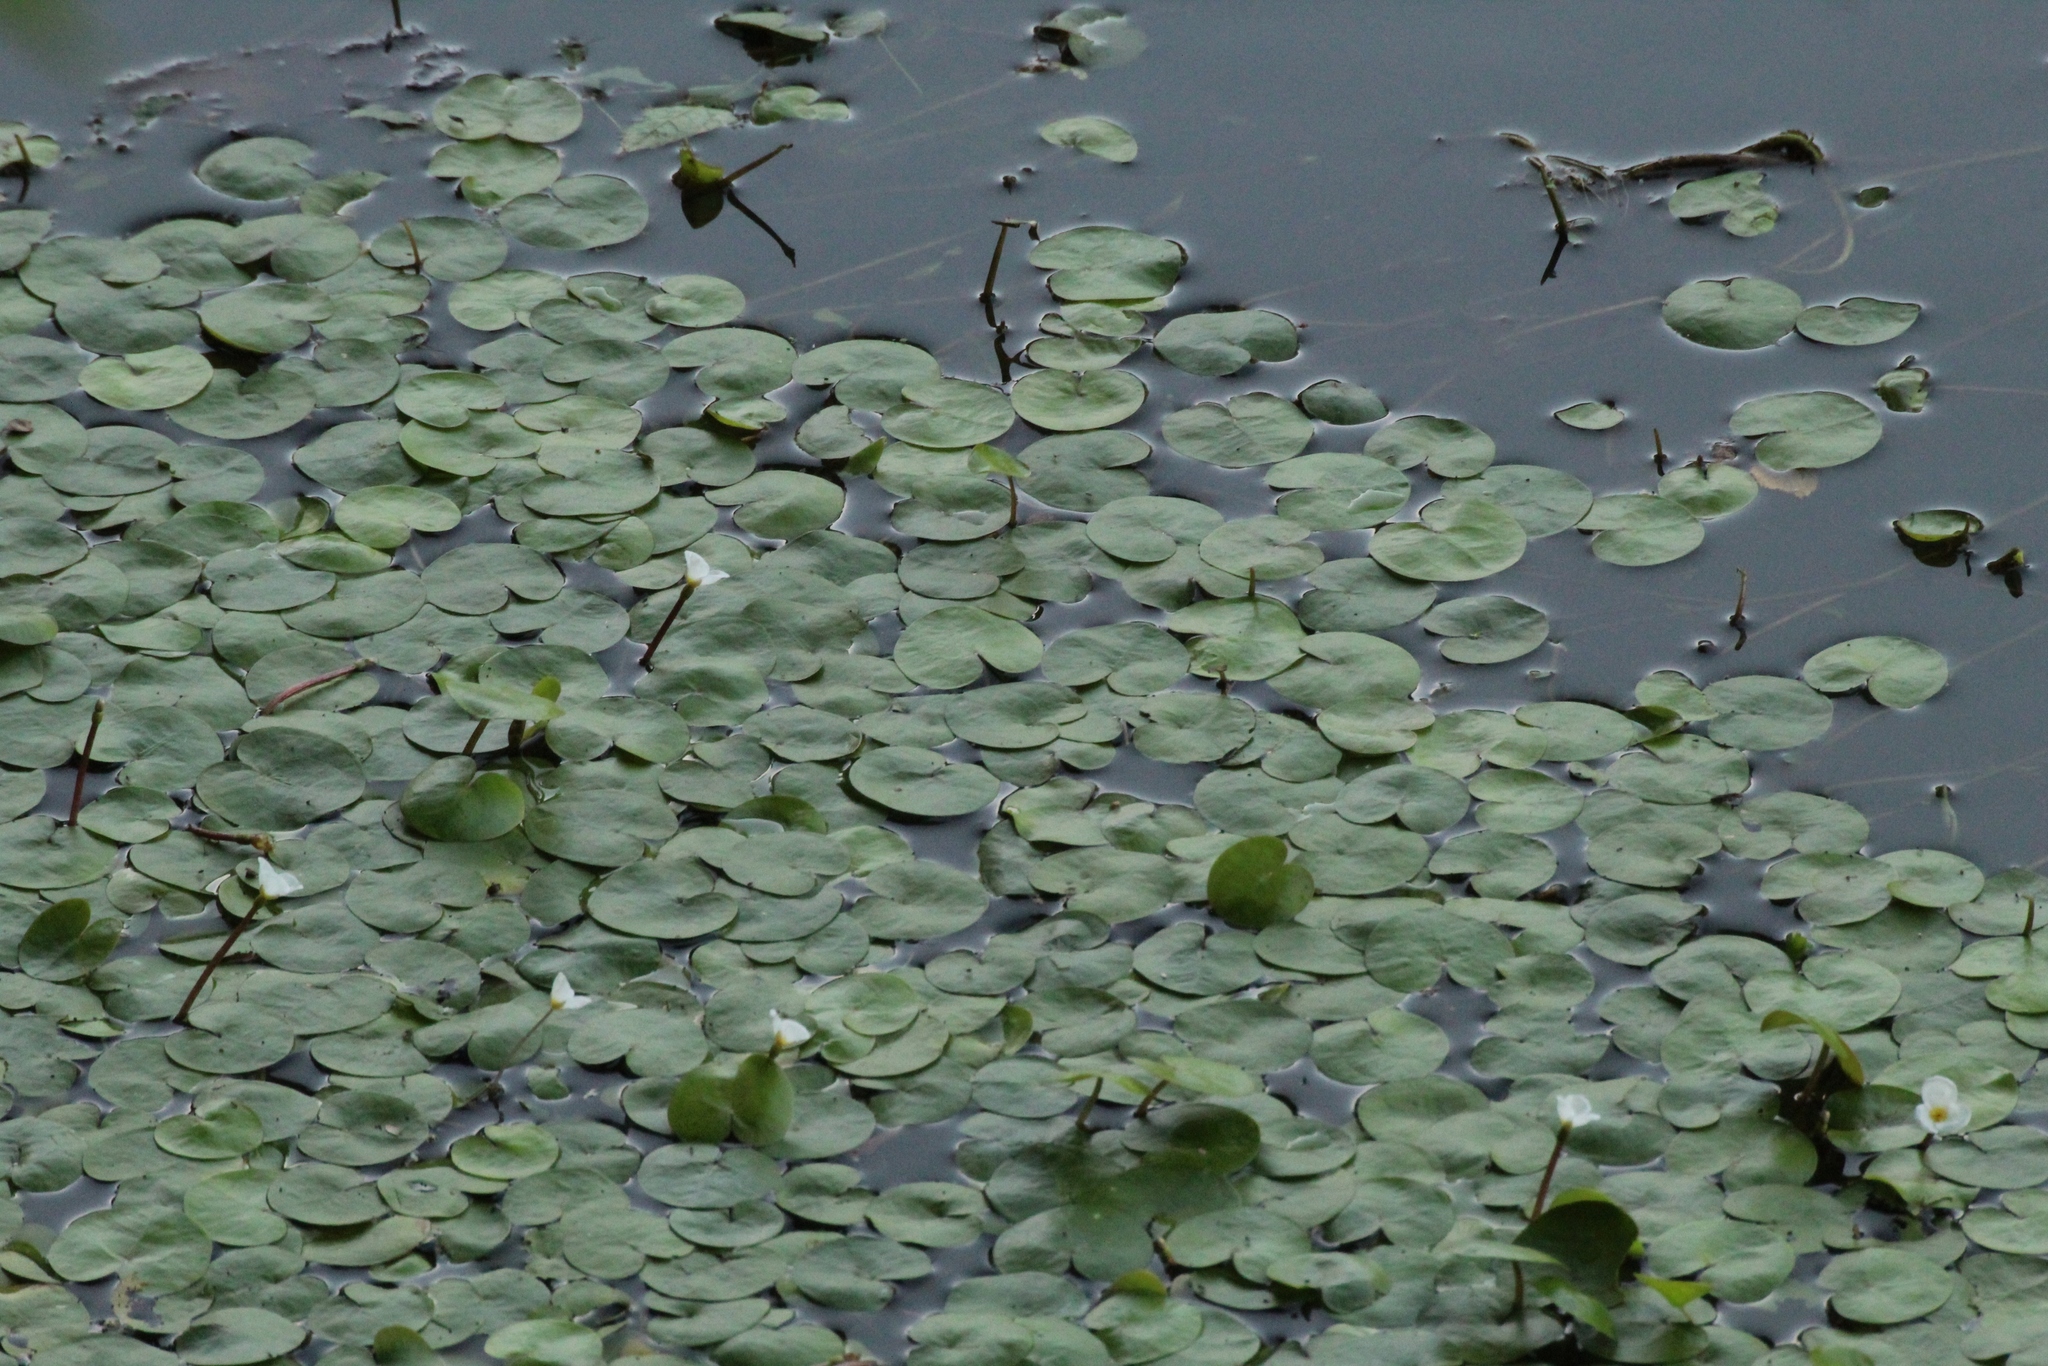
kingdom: Plantae
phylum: Tracheophyta
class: Liliopsida
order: Alismatales
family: Hydrocharitaceae
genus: Hydrocharis
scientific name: Hydrocharis morsus-ranae
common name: Frogbit
